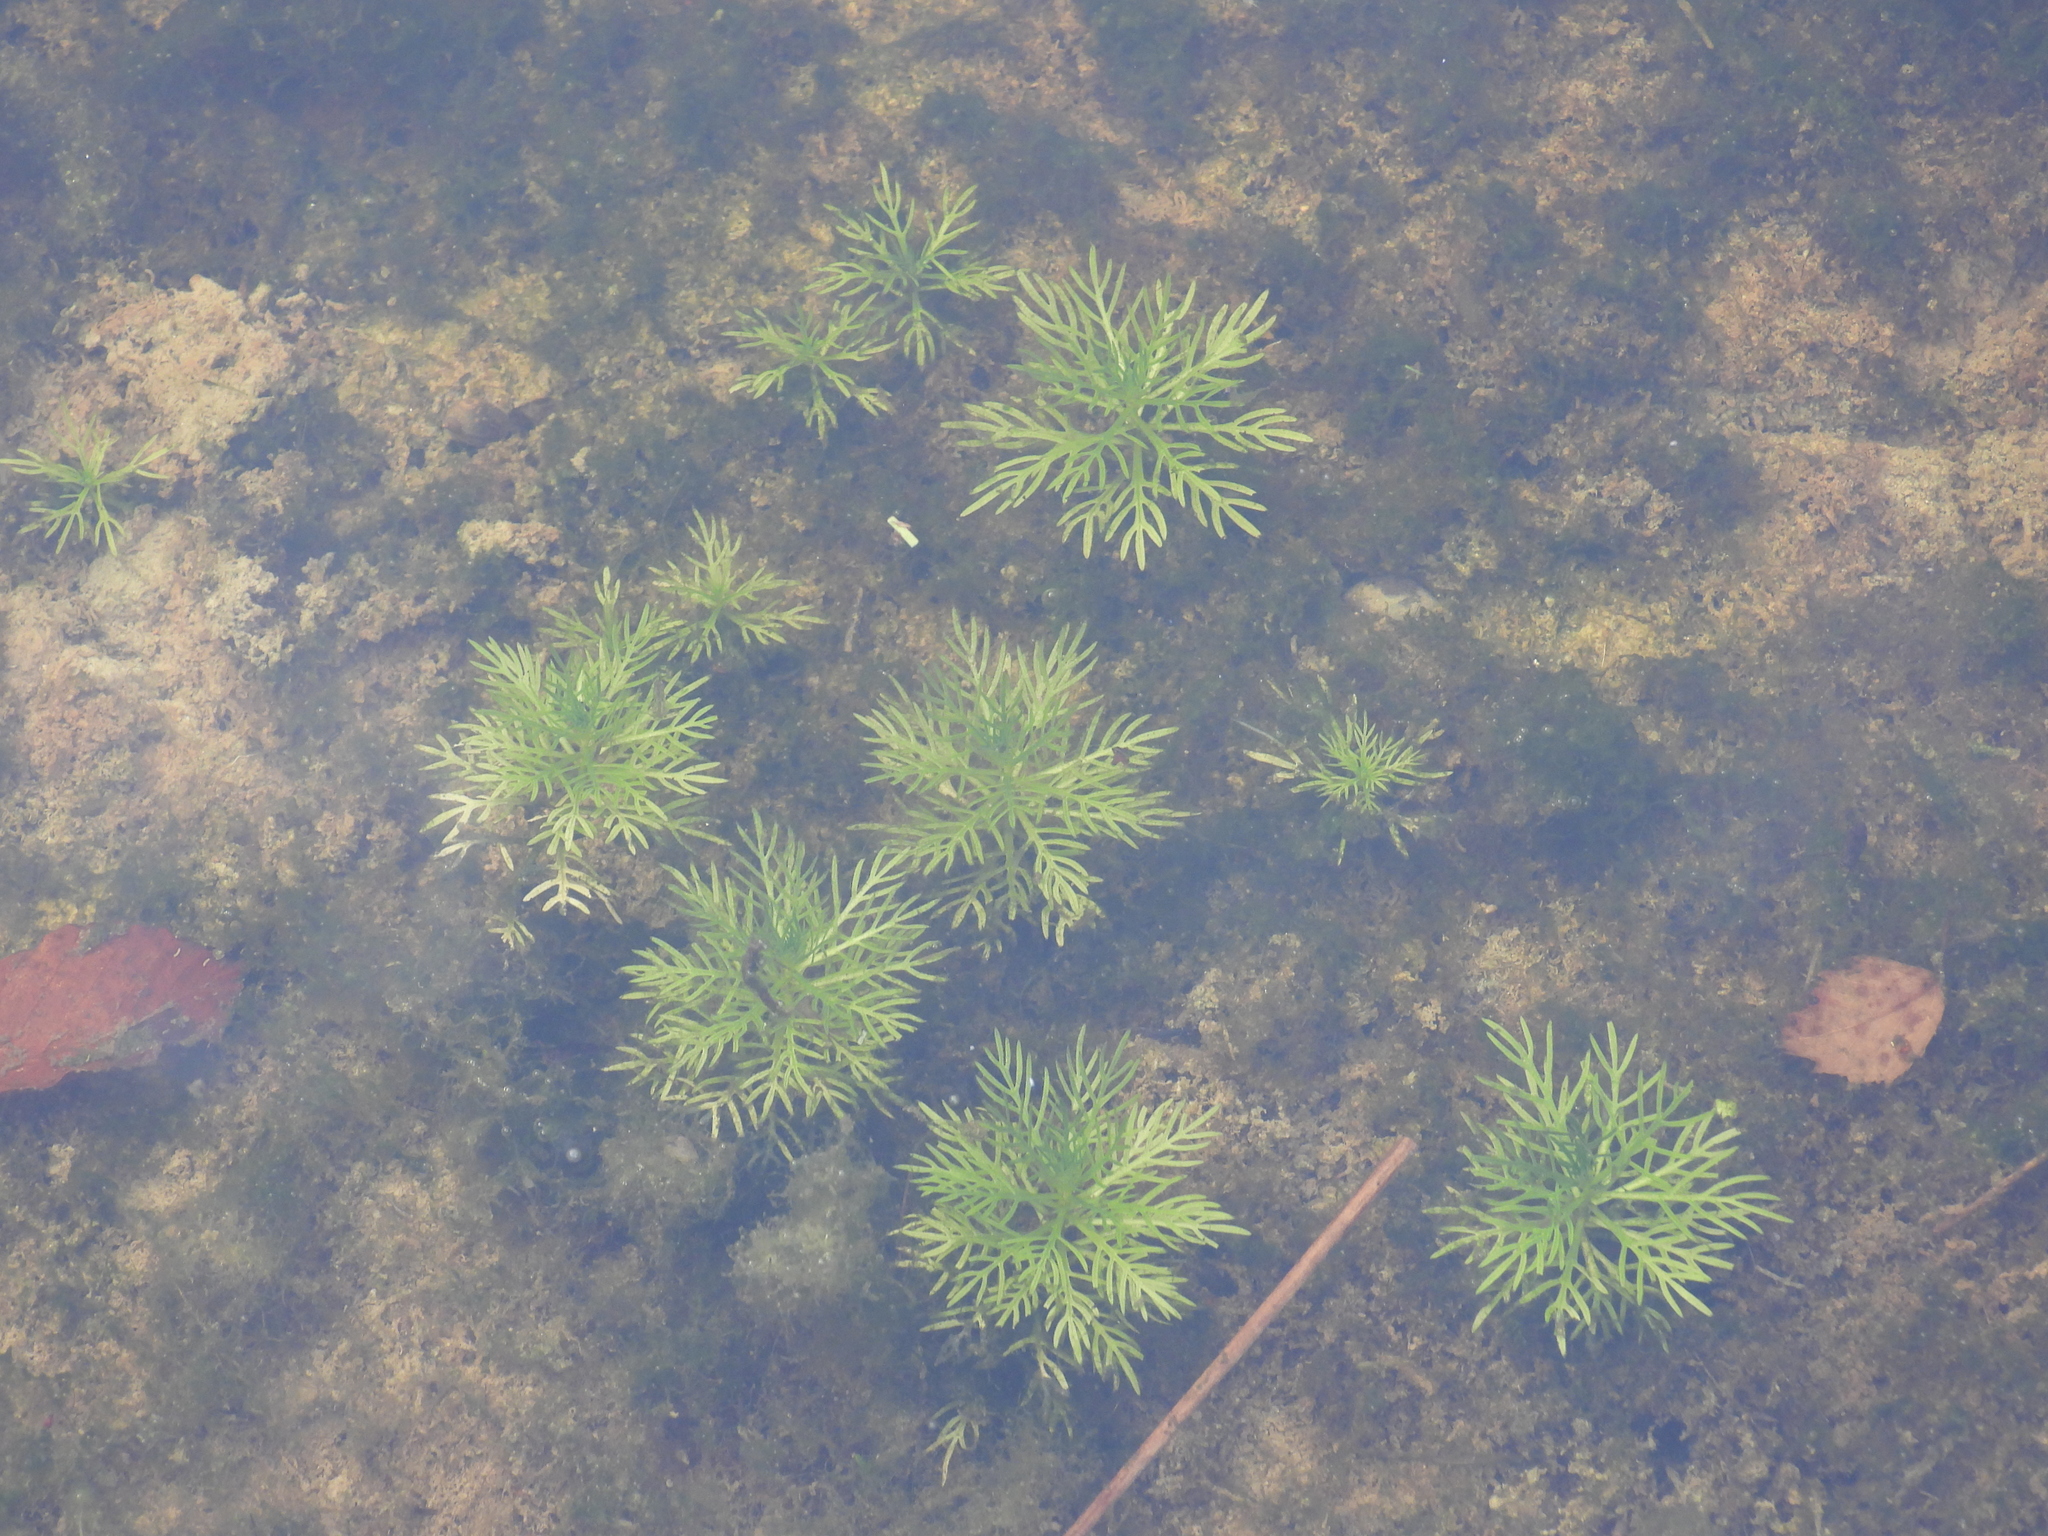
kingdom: Plantae
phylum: Tracheophyta
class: Magnoliopsida
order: Ericales
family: Primulaceae
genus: Hottonia
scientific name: Hottonia palustris
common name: Water-violet
